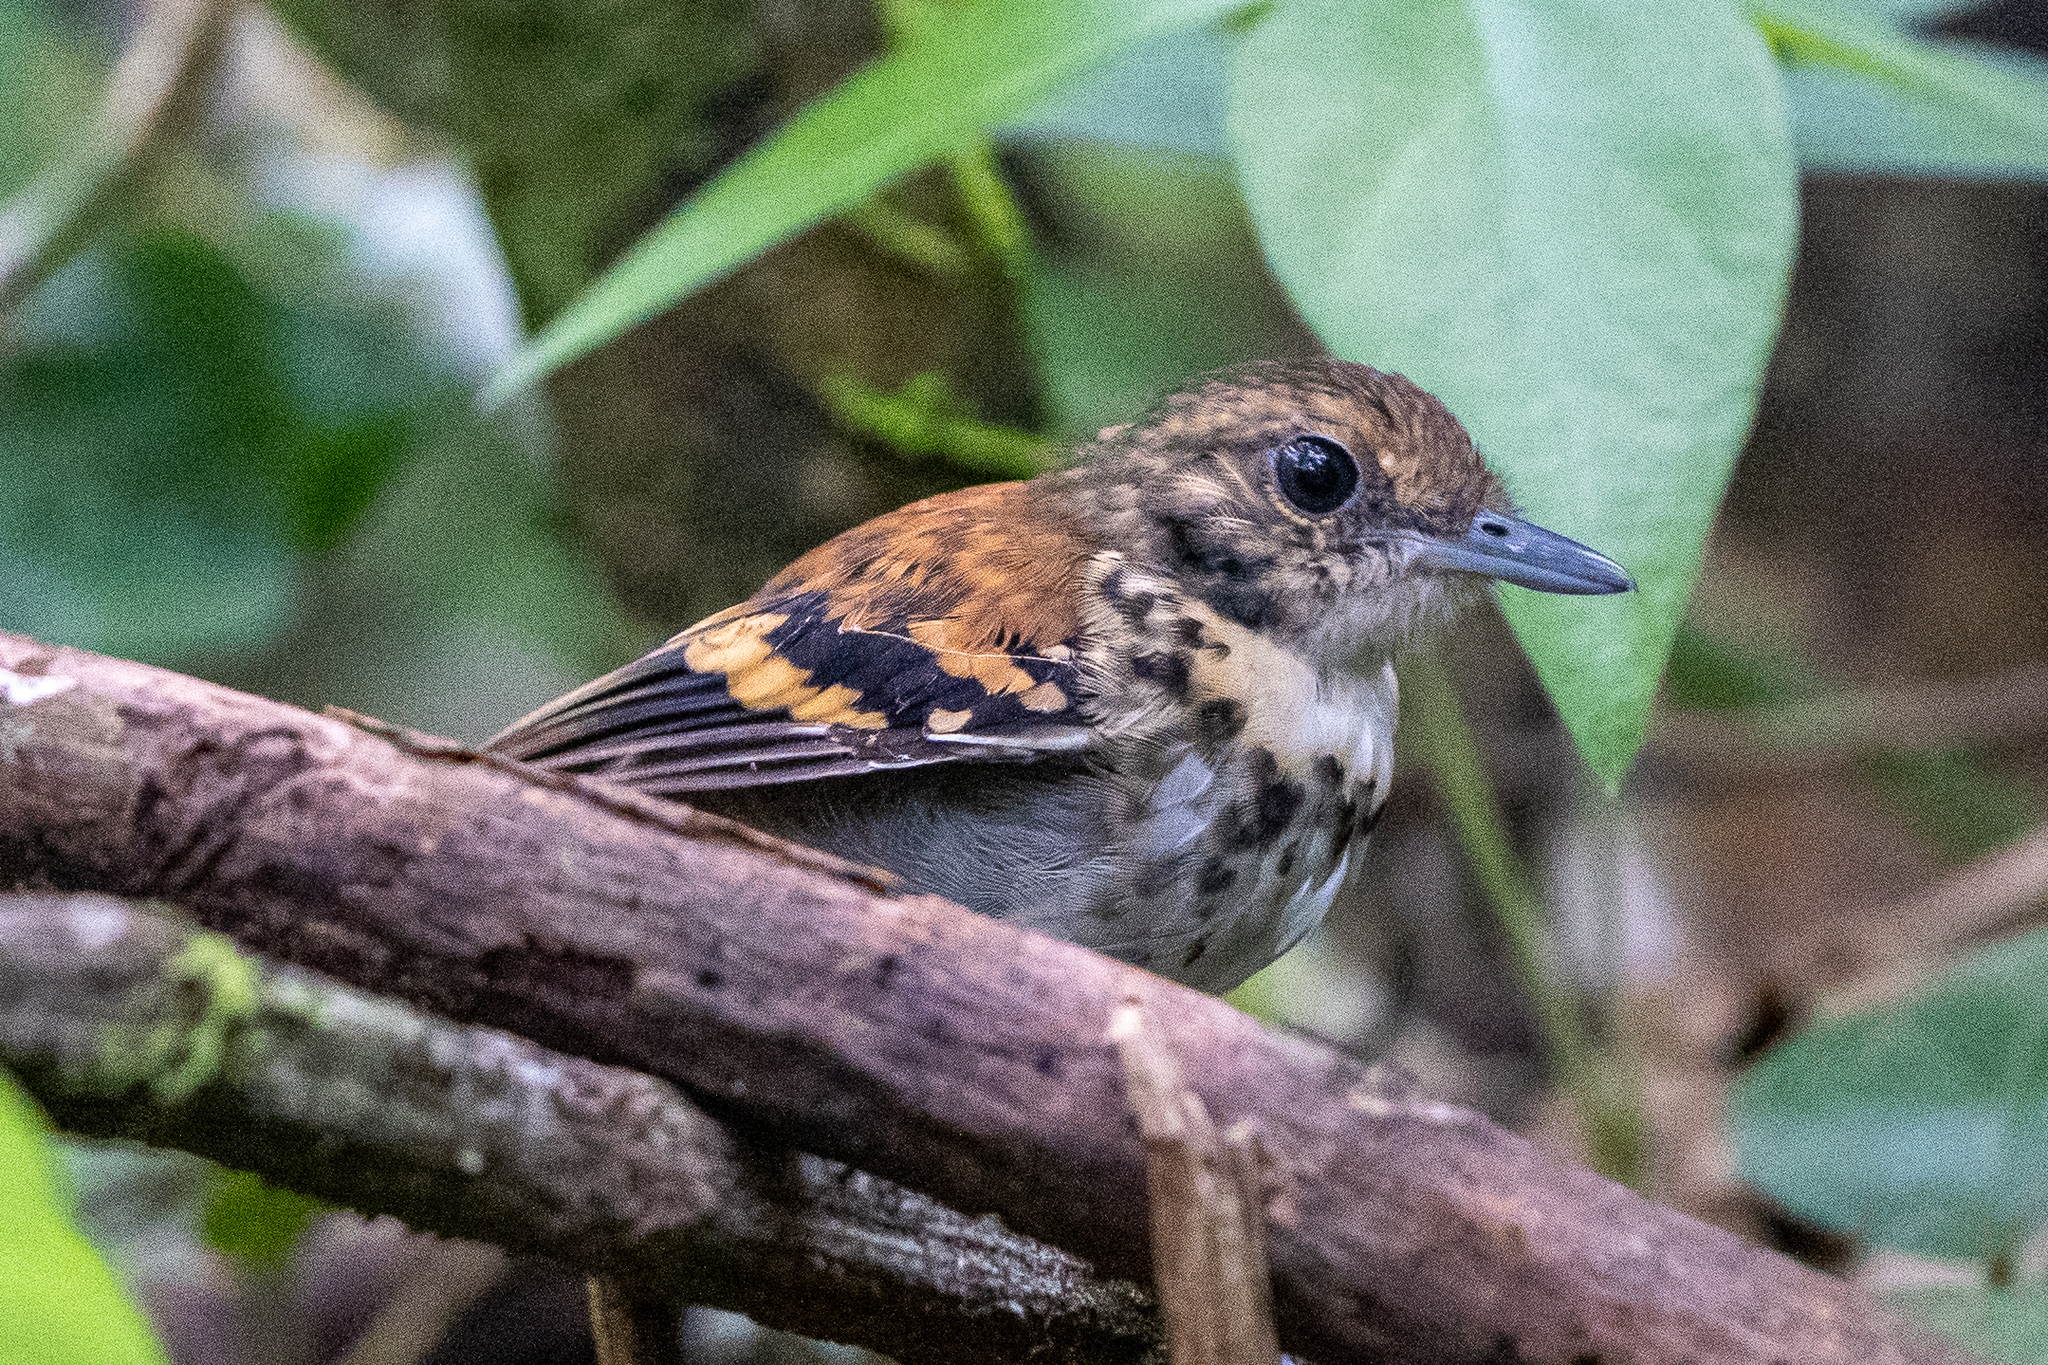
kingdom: Animalia
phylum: Chordata
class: Aves
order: Passeriformes
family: Thamnophilidae
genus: Hylophylax
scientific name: Hylophylax naevioides
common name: Spotted antbird
